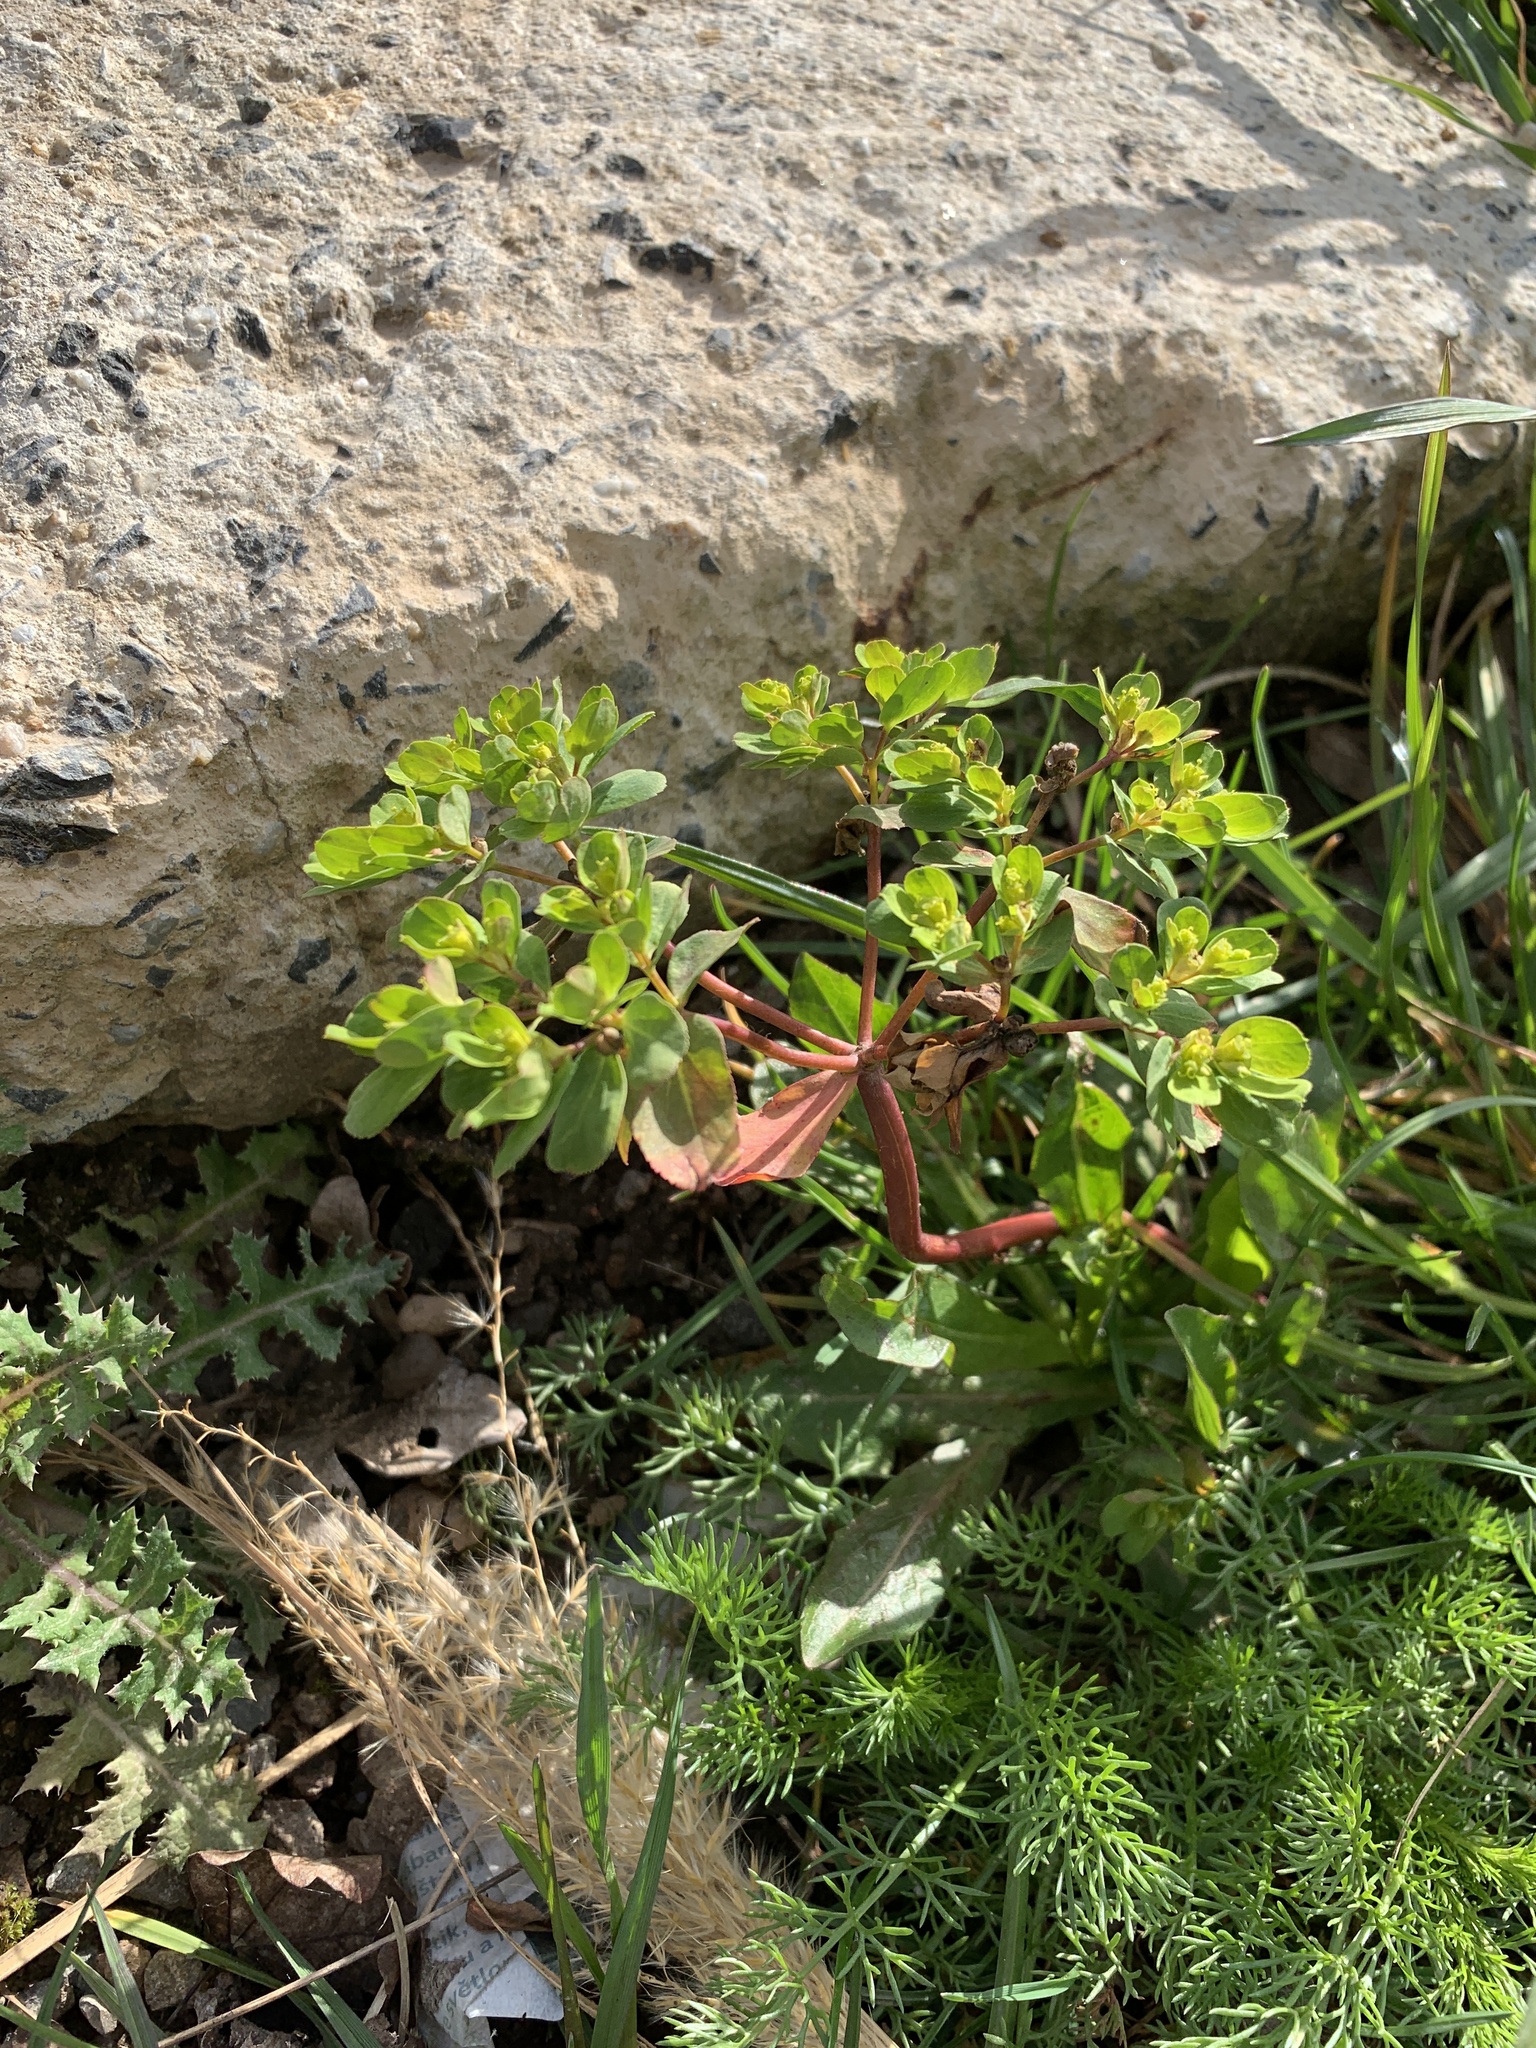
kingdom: Plantae
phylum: Tracheophyta
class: Magnoliopsida
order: Malpighiales
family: Euphorbiaceae
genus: Euphorbia
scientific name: Euphorbia helioscopia
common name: Sun spurge
